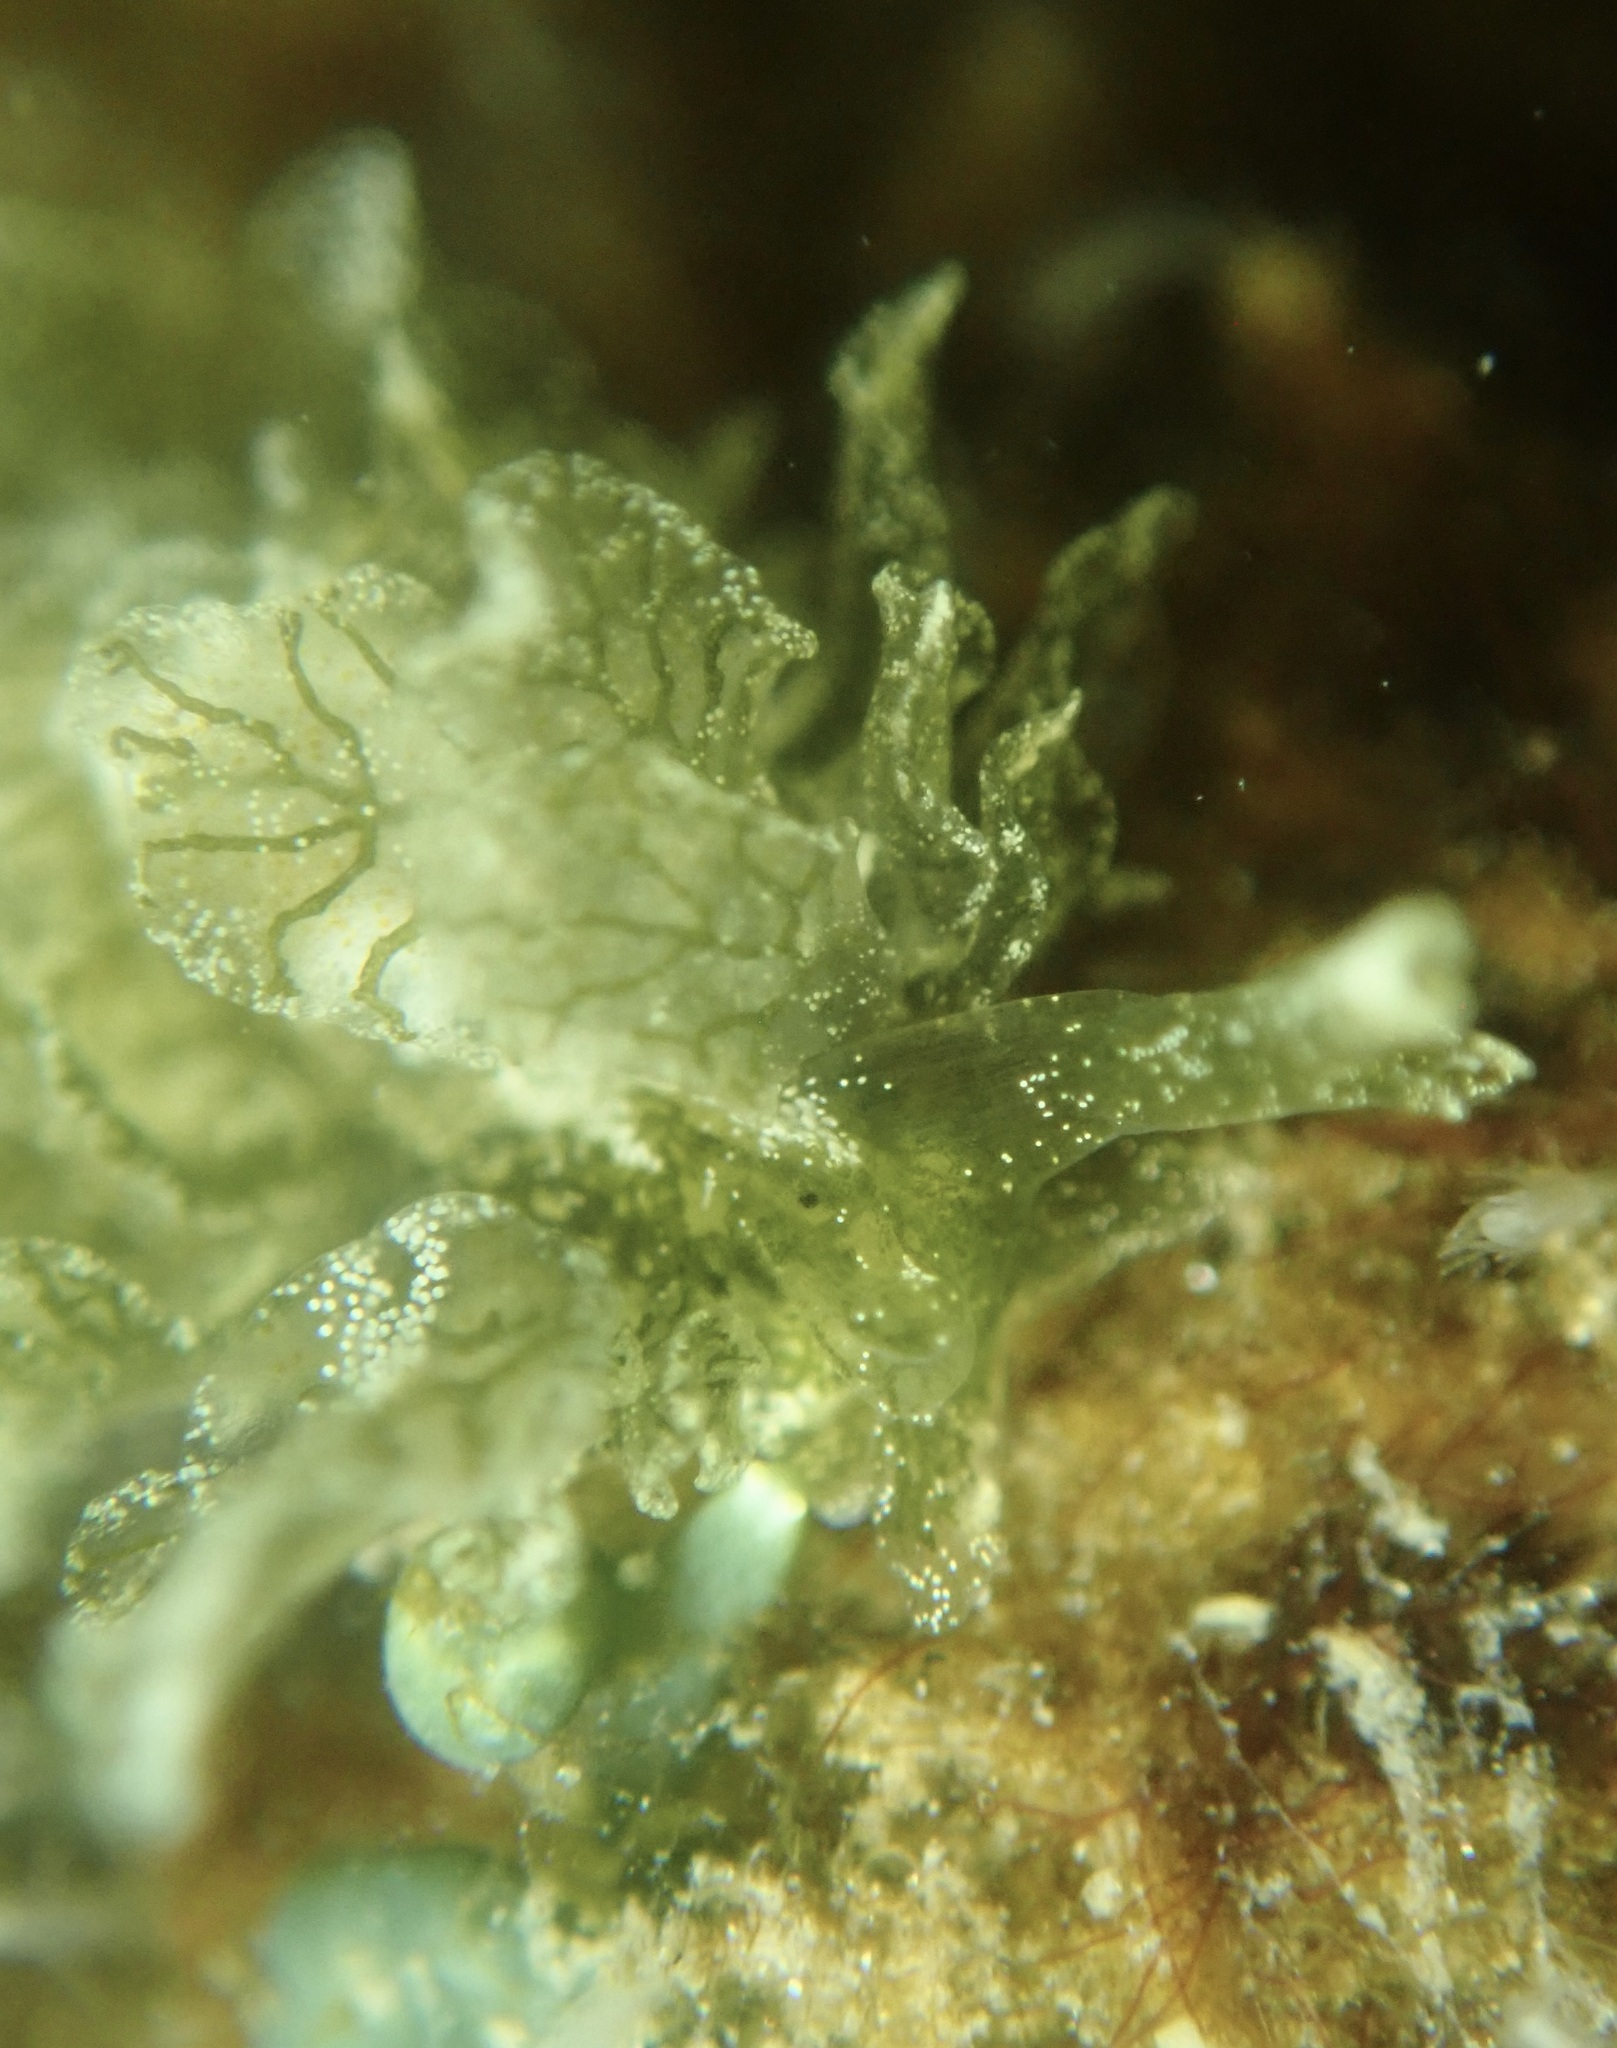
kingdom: Animalia
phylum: Mollusca
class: Gastropoda
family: Hermaeidae
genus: Caliphylla
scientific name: Caliphylla mediterranea
